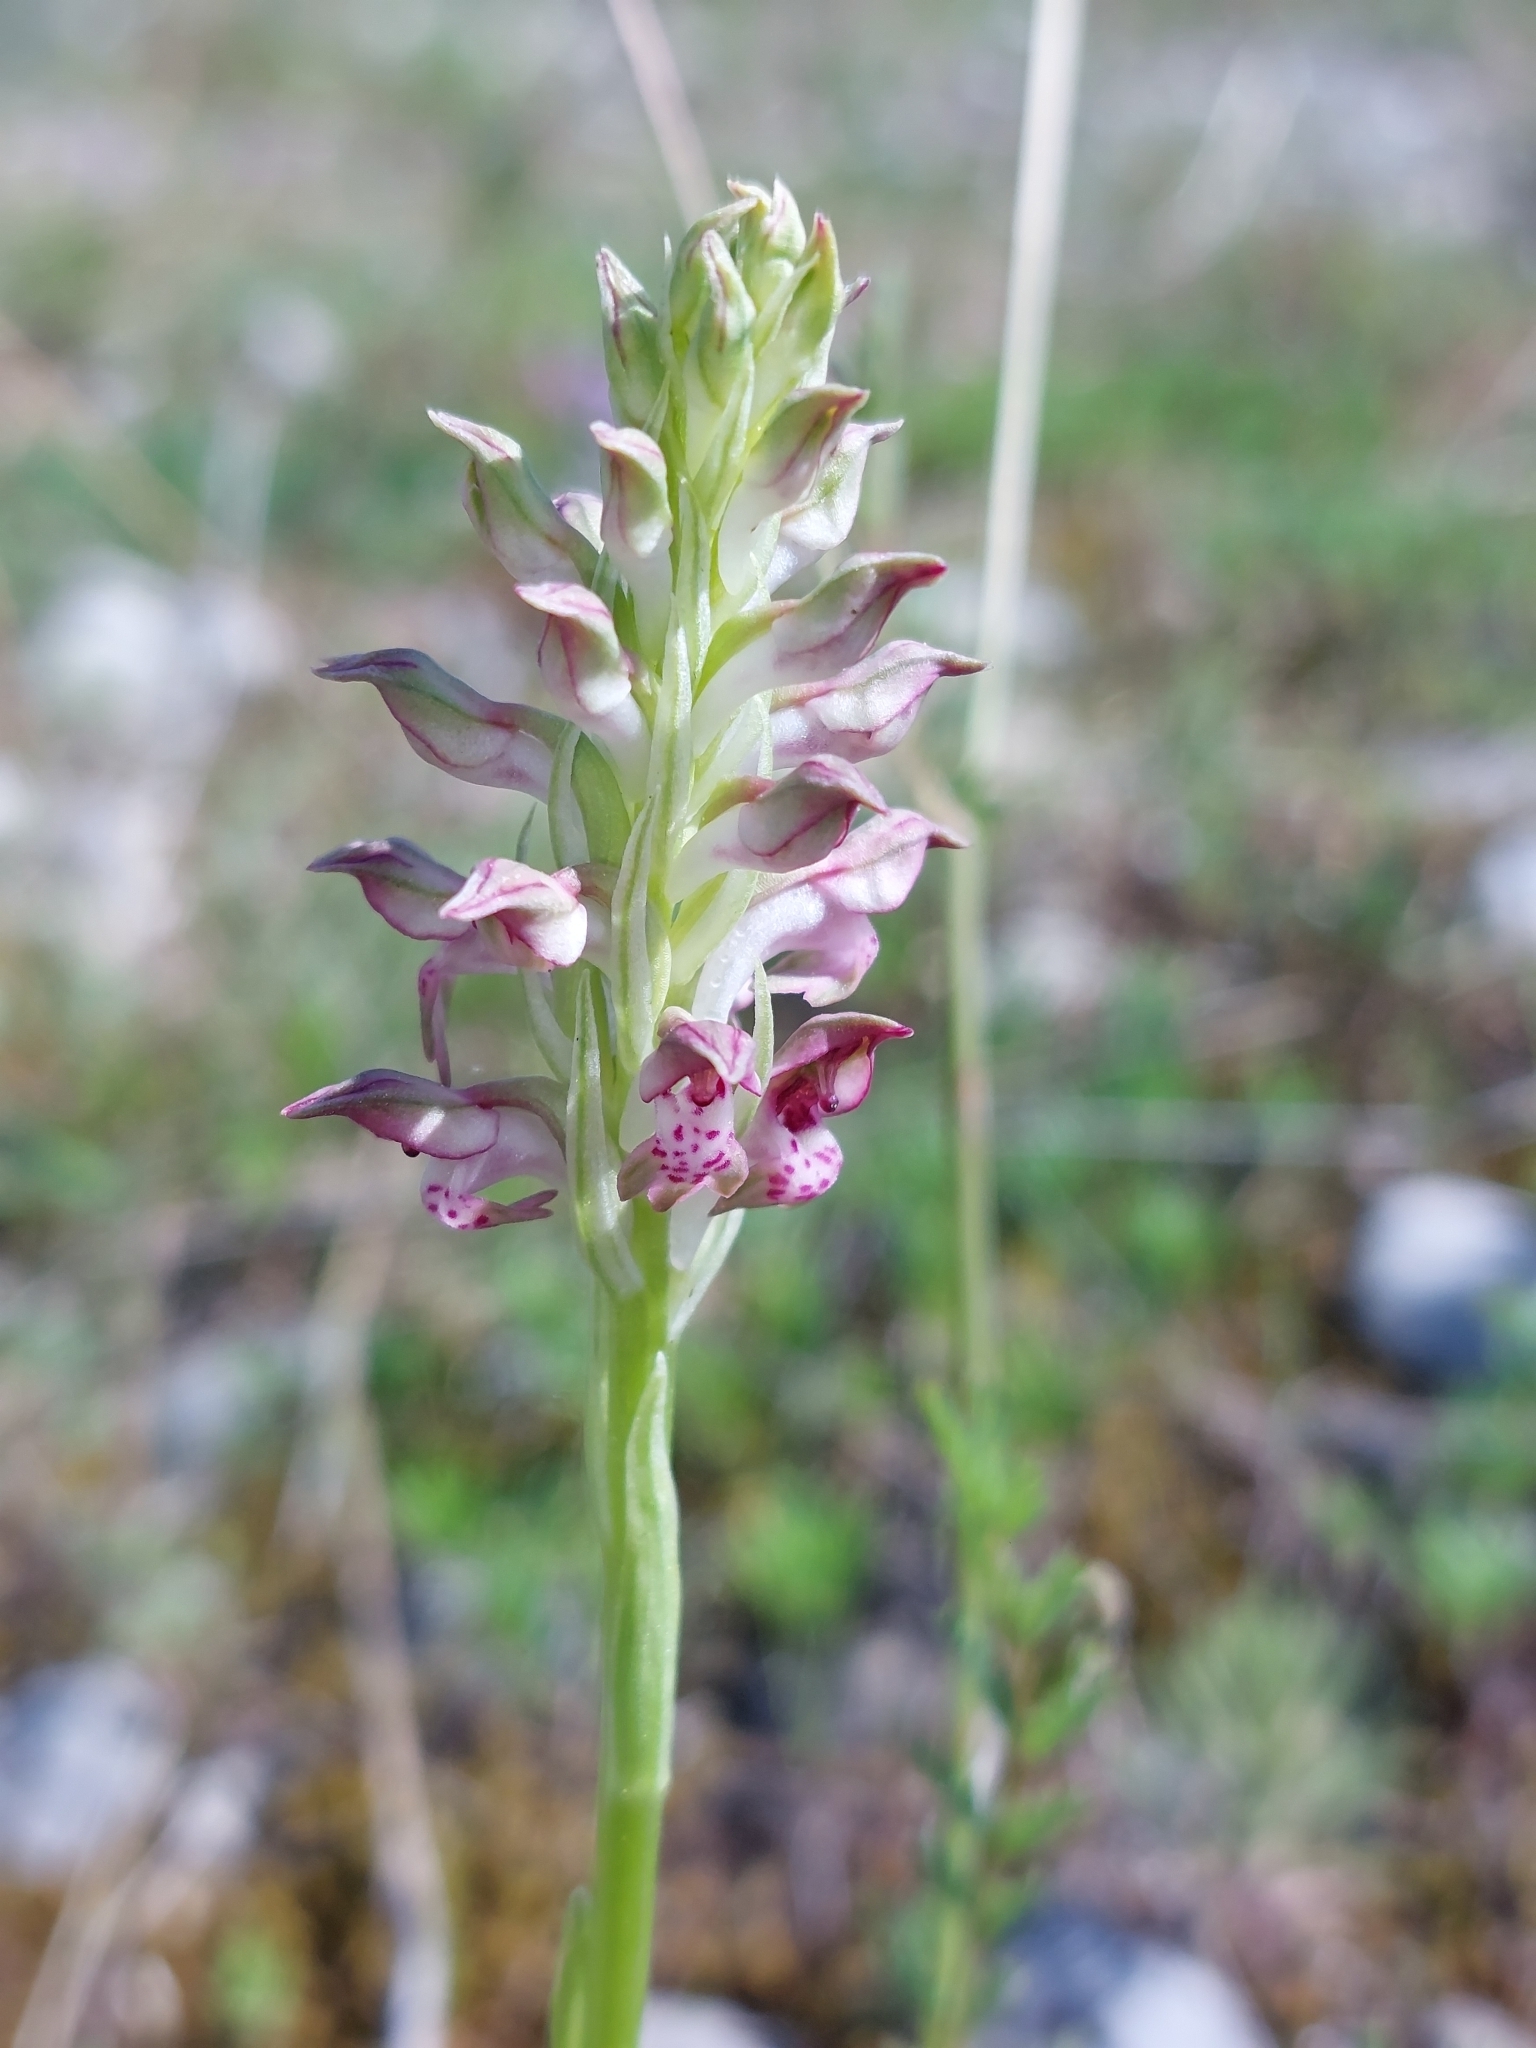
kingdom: Plantae
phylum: Tracheophyta
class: Liliopsida
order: Asparagales
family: Orchidaceae
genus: Anacamptis
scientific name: Anacamptis coriophora
